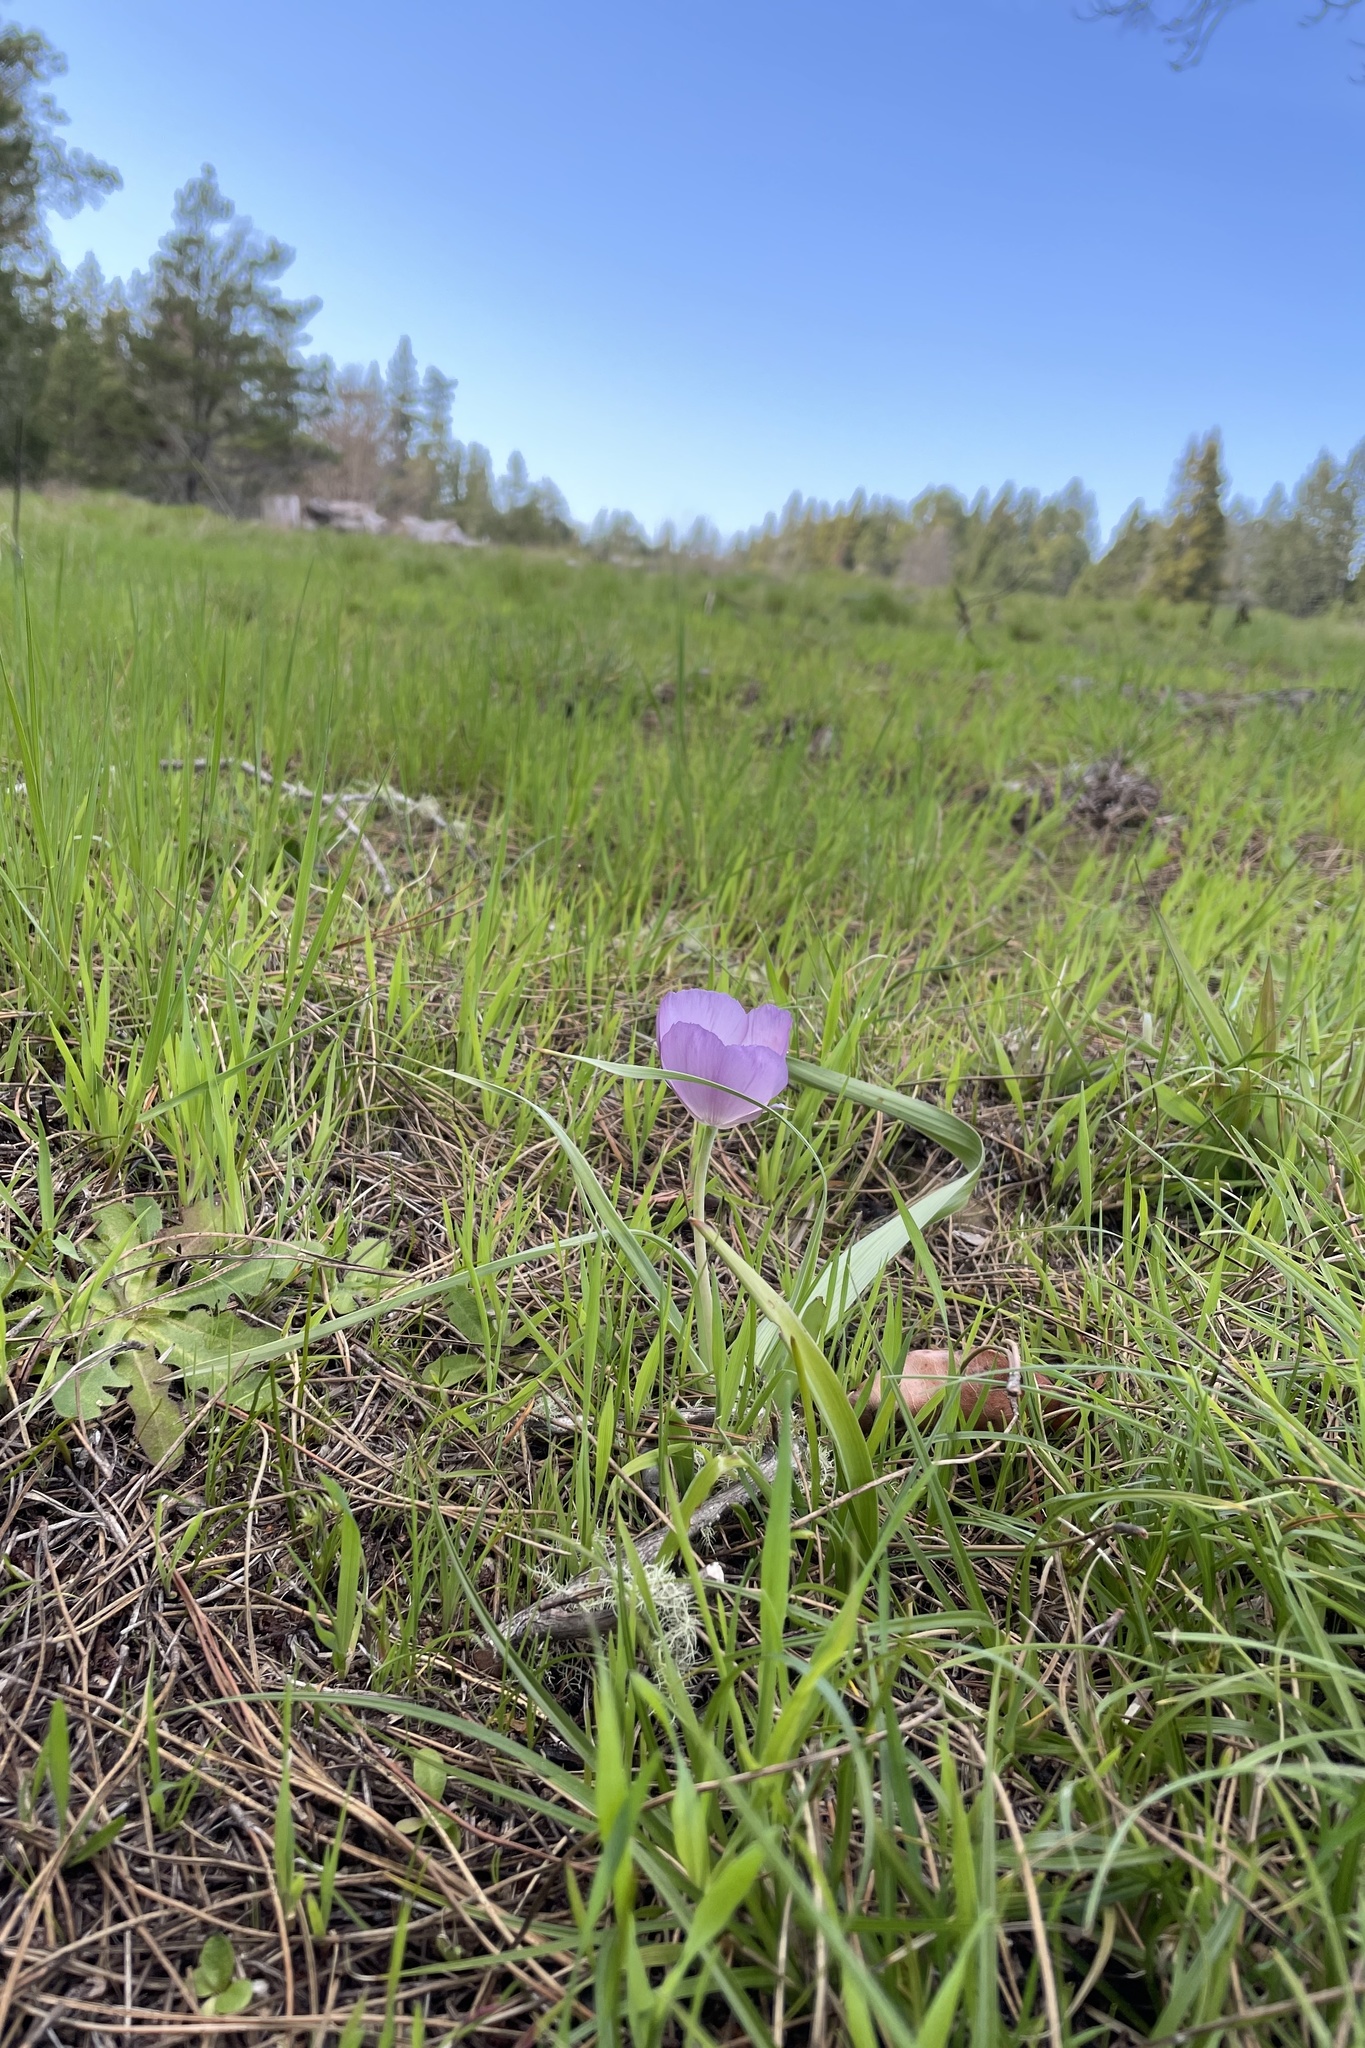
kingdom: Plantae
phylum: Tracheophyta
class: Liliopsida
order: Liliales
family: Liliaceae
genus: Calochortus
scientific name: Calochortus uniflorus
